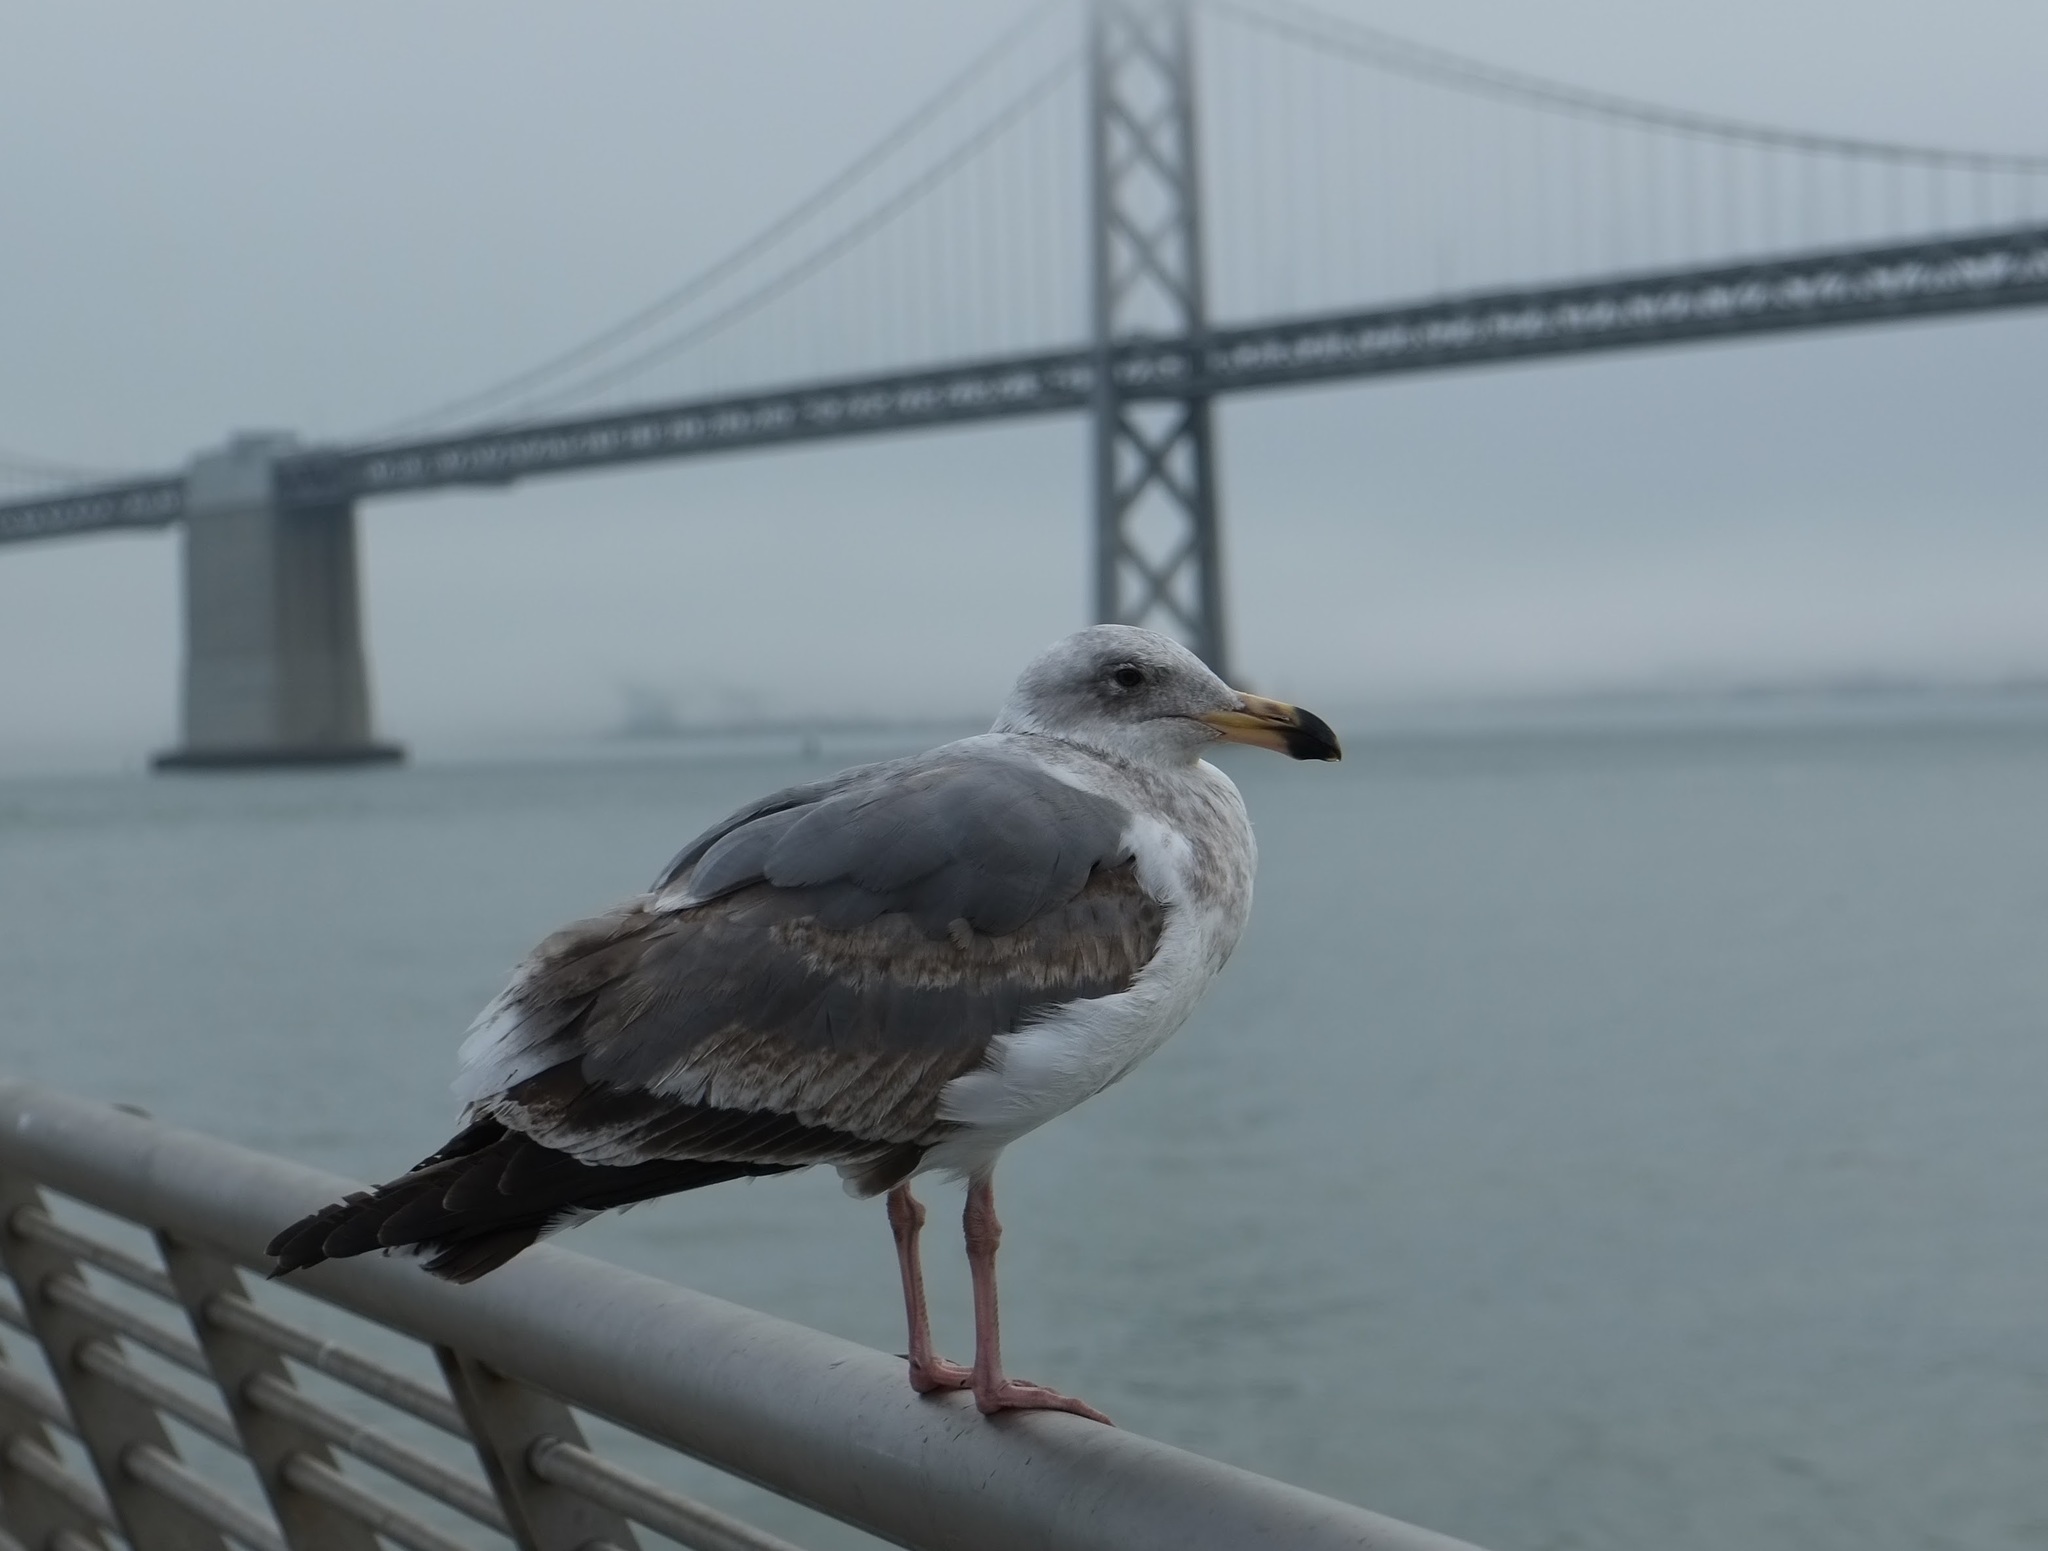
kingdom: Animalia
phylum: Chordata
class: Aves
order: Charadriiformes
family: Laridae
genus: Larus
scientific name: Larus occidentalis
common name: Western gull
